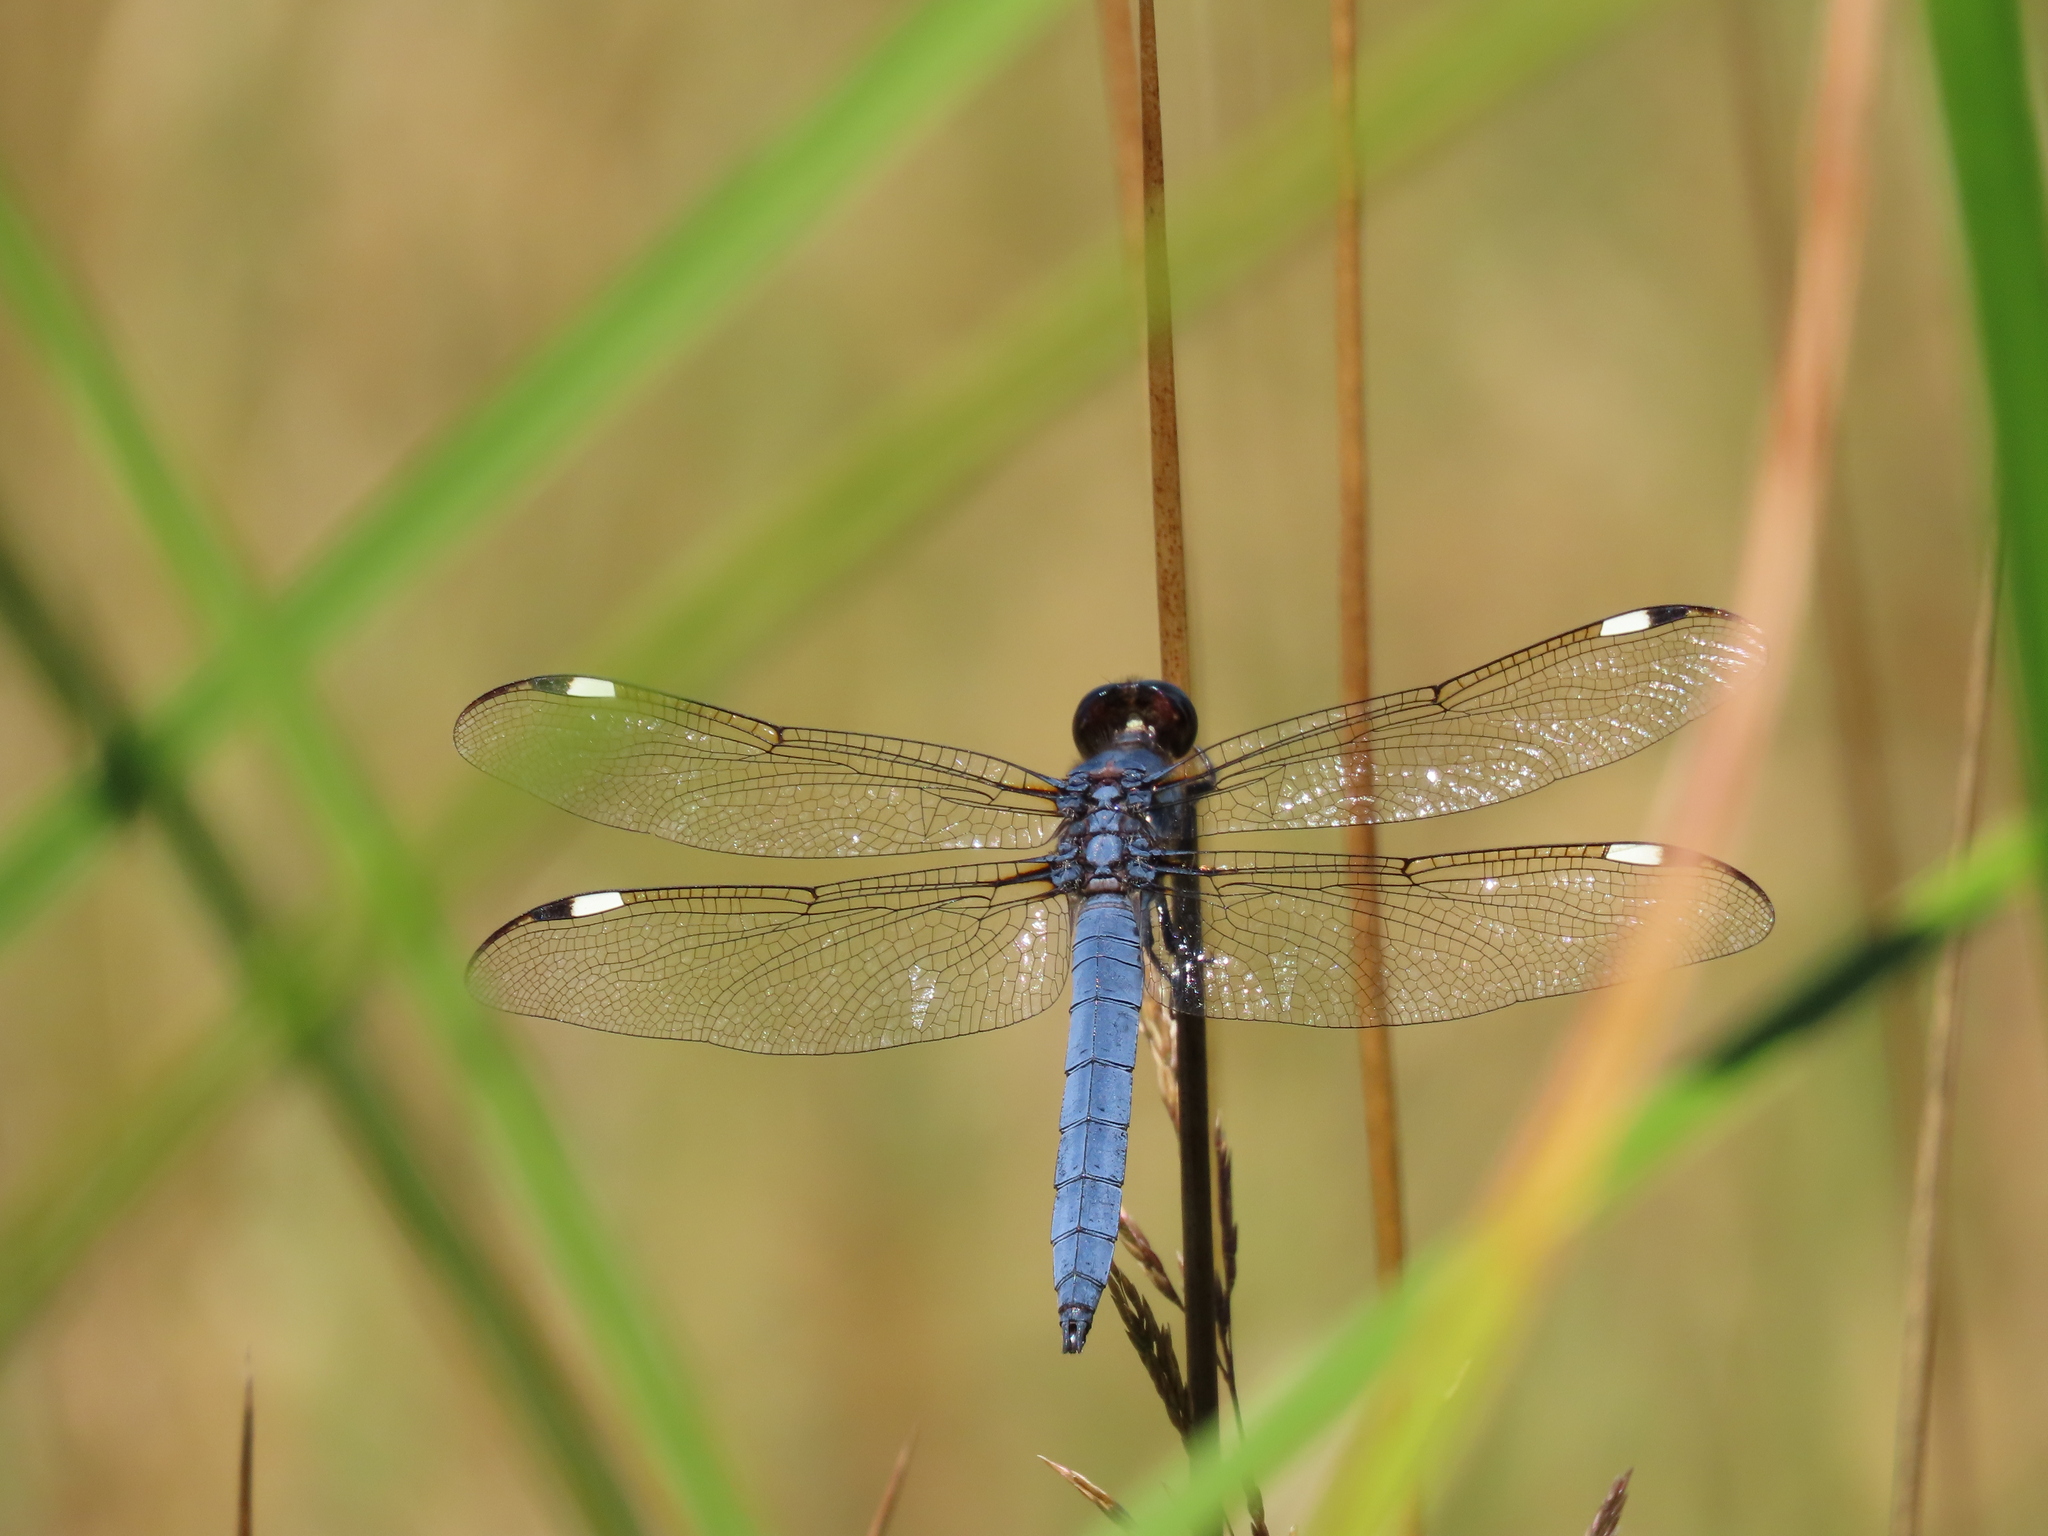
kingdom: Animalia
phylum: Arthropoda
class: Insecta
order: Odonata
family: Libellulidae
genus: Libellula
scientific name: Libellula cyanea
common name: Spangled skimmer
